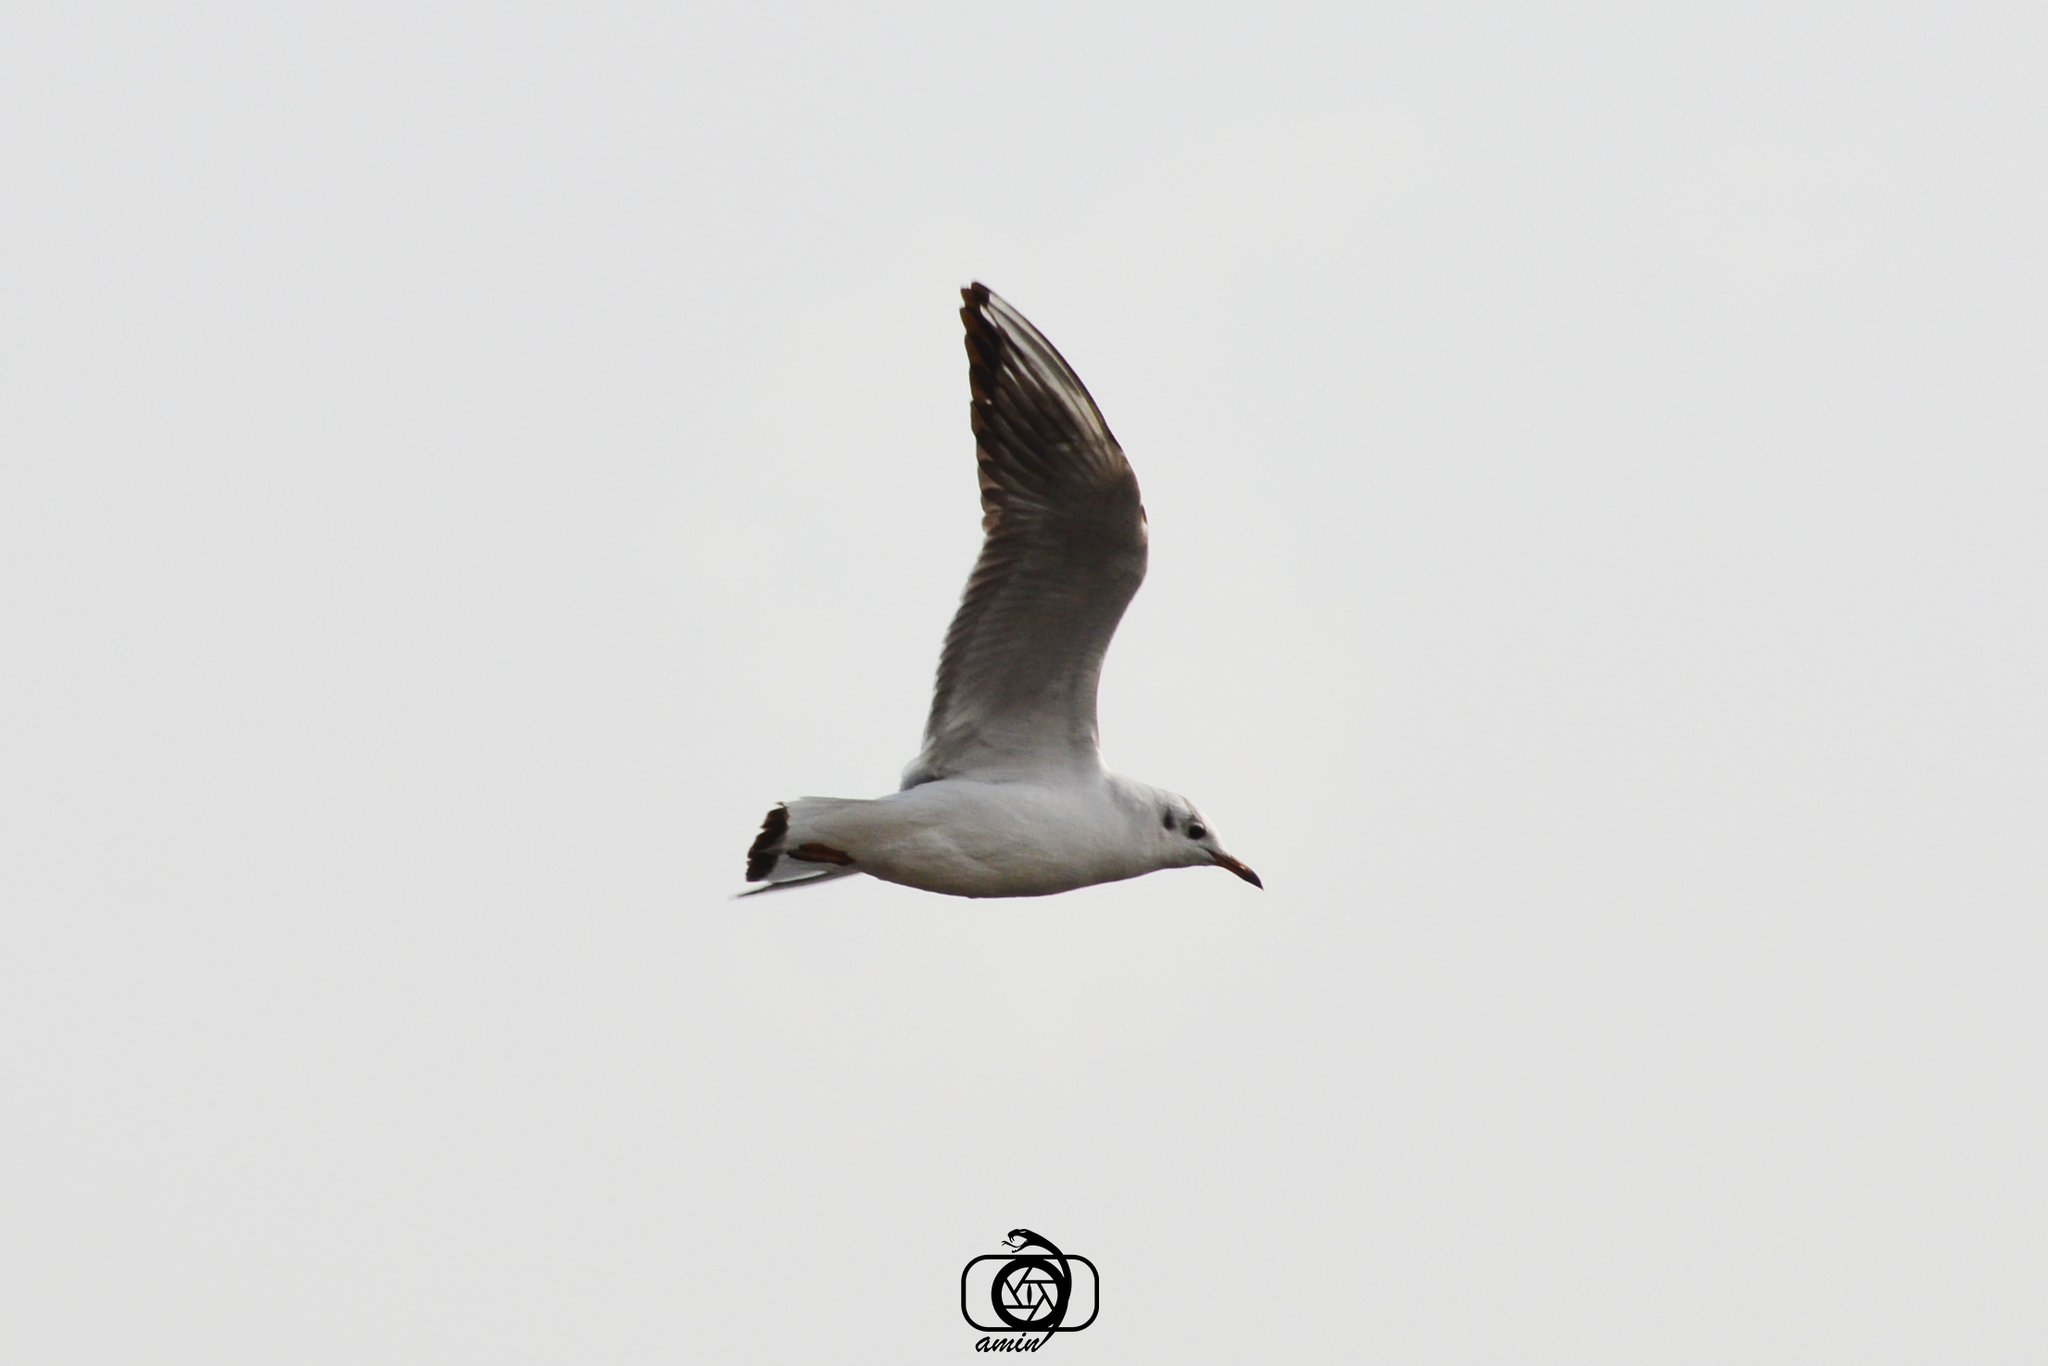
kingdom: Animalia
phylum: Chordata
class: Aves
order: Charadriiformes
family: Laridae
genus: Chroicocephalus
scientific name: Chroicocephalus ridibundus
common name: Black-headed gull
